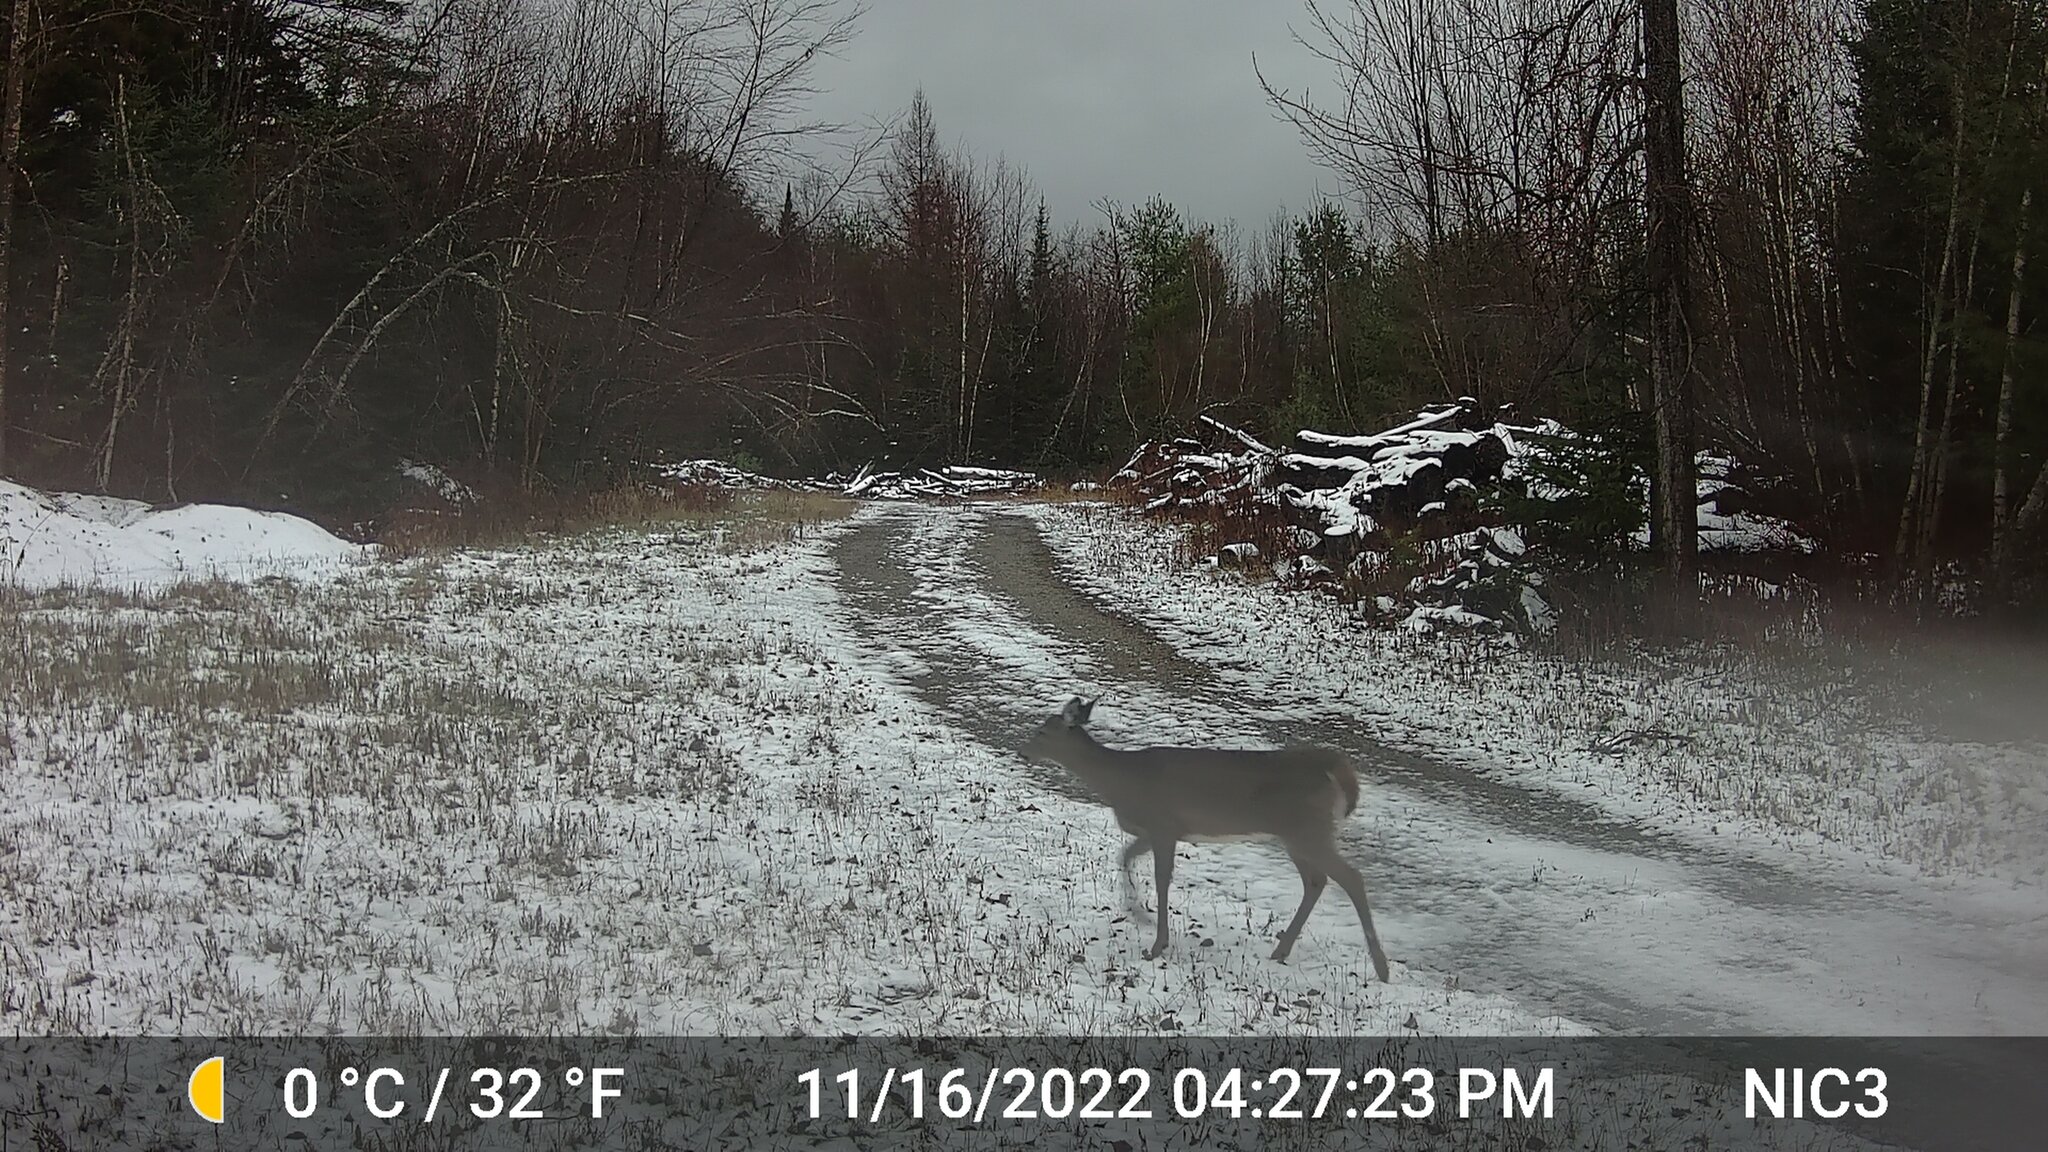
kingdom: Animalia
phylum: Chordata
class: Mammalia
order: Artiodactyla
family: Cervidae
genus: Odocoileus
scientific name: Odocoileus virginianus
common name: White-tailed deer
